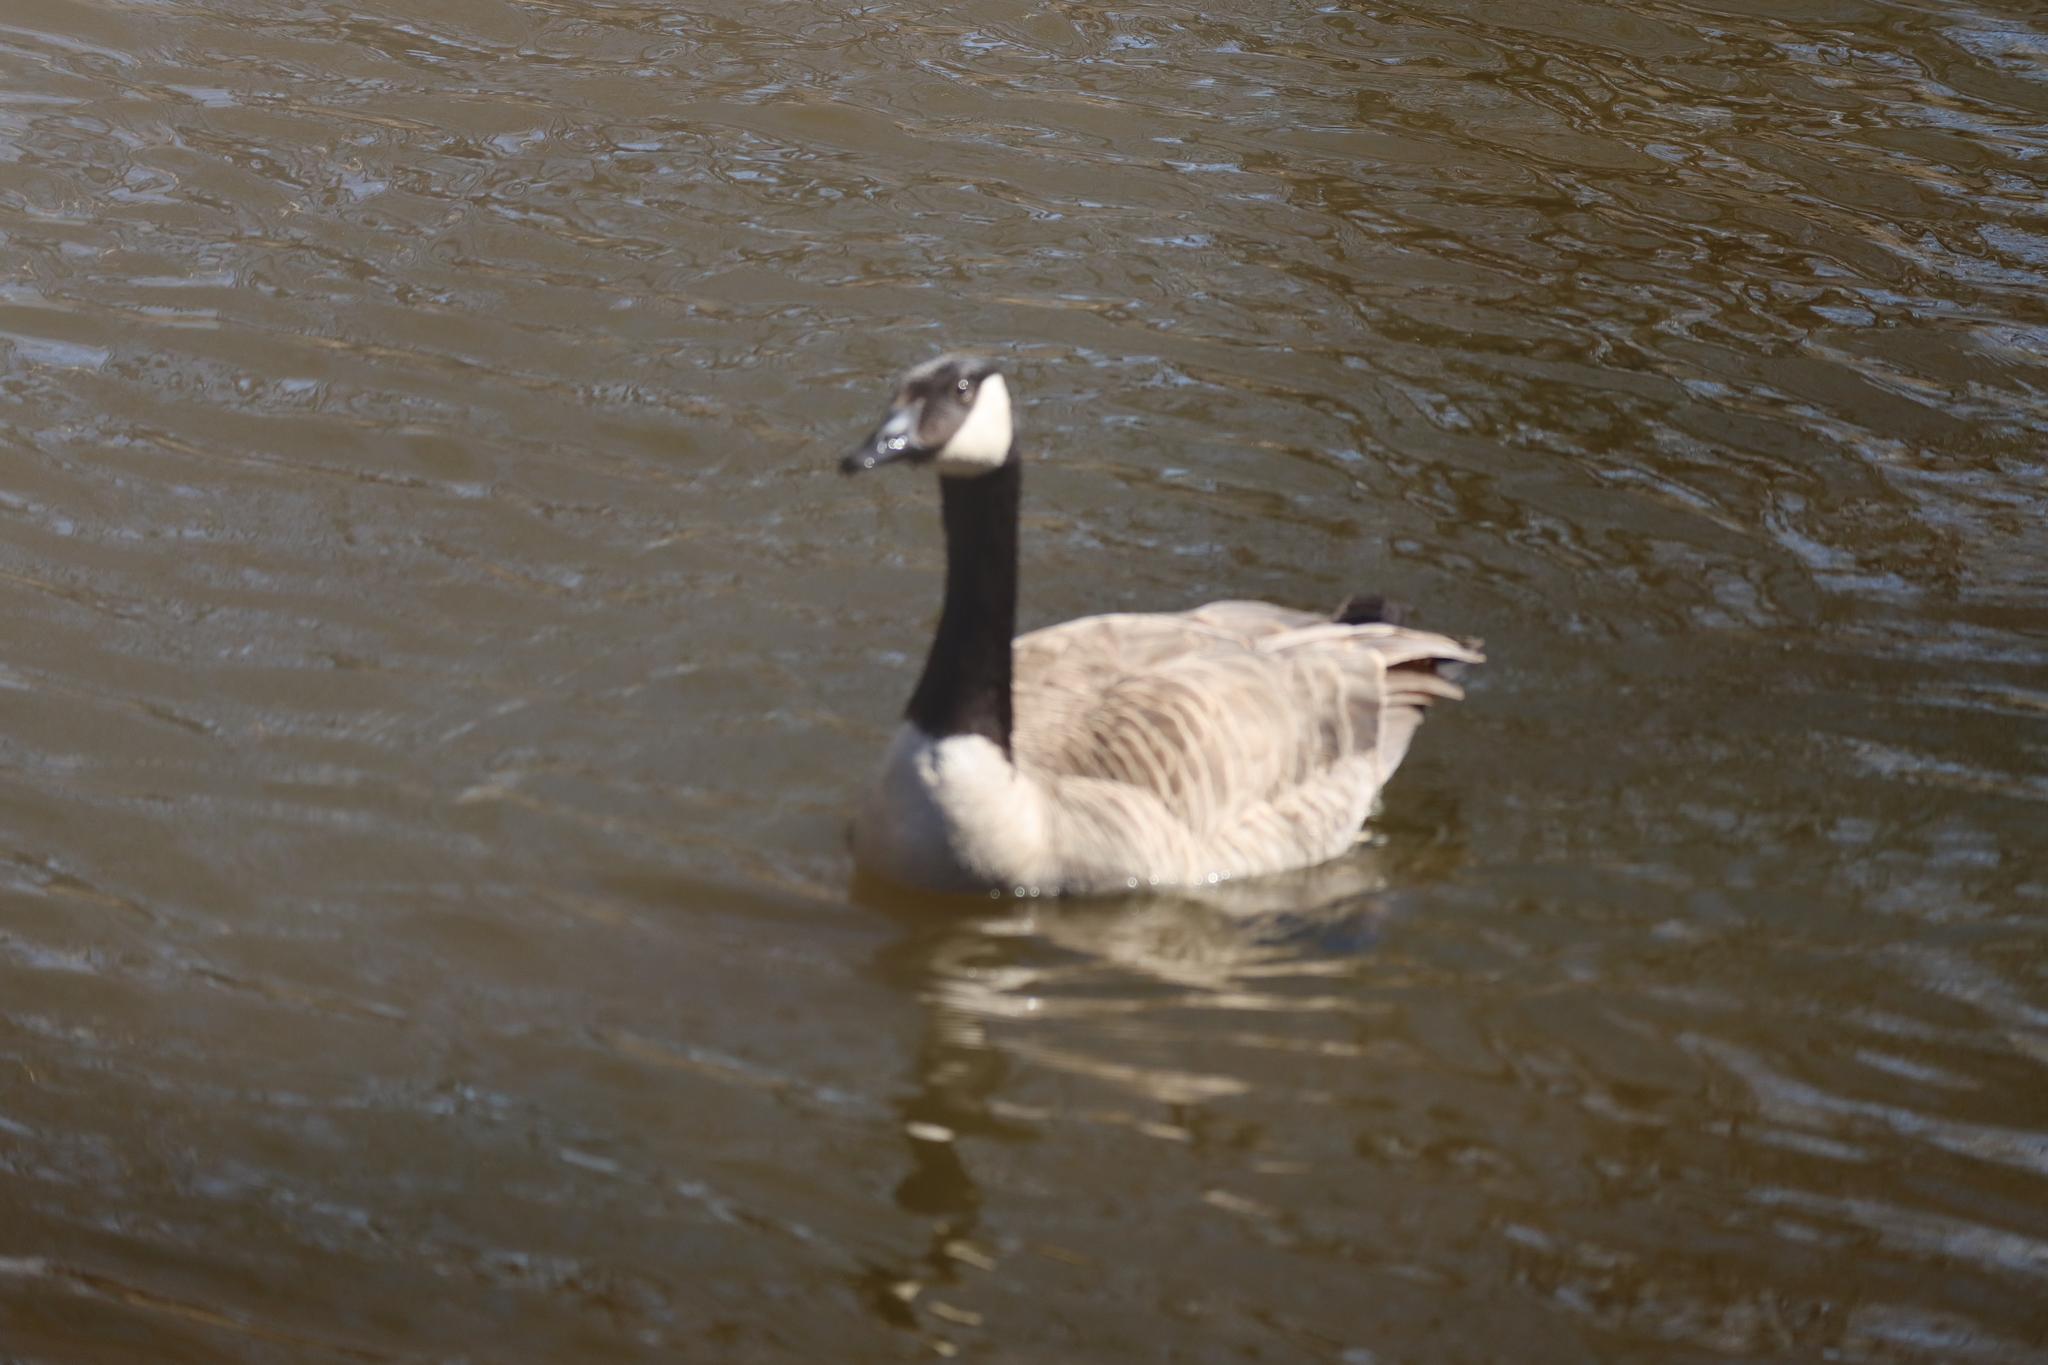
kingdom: Animalia
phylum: Chordata
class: Aves
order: Anseriformes
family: Anatidae
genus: Branta
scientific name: Branta canadensis
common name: Canada goose
